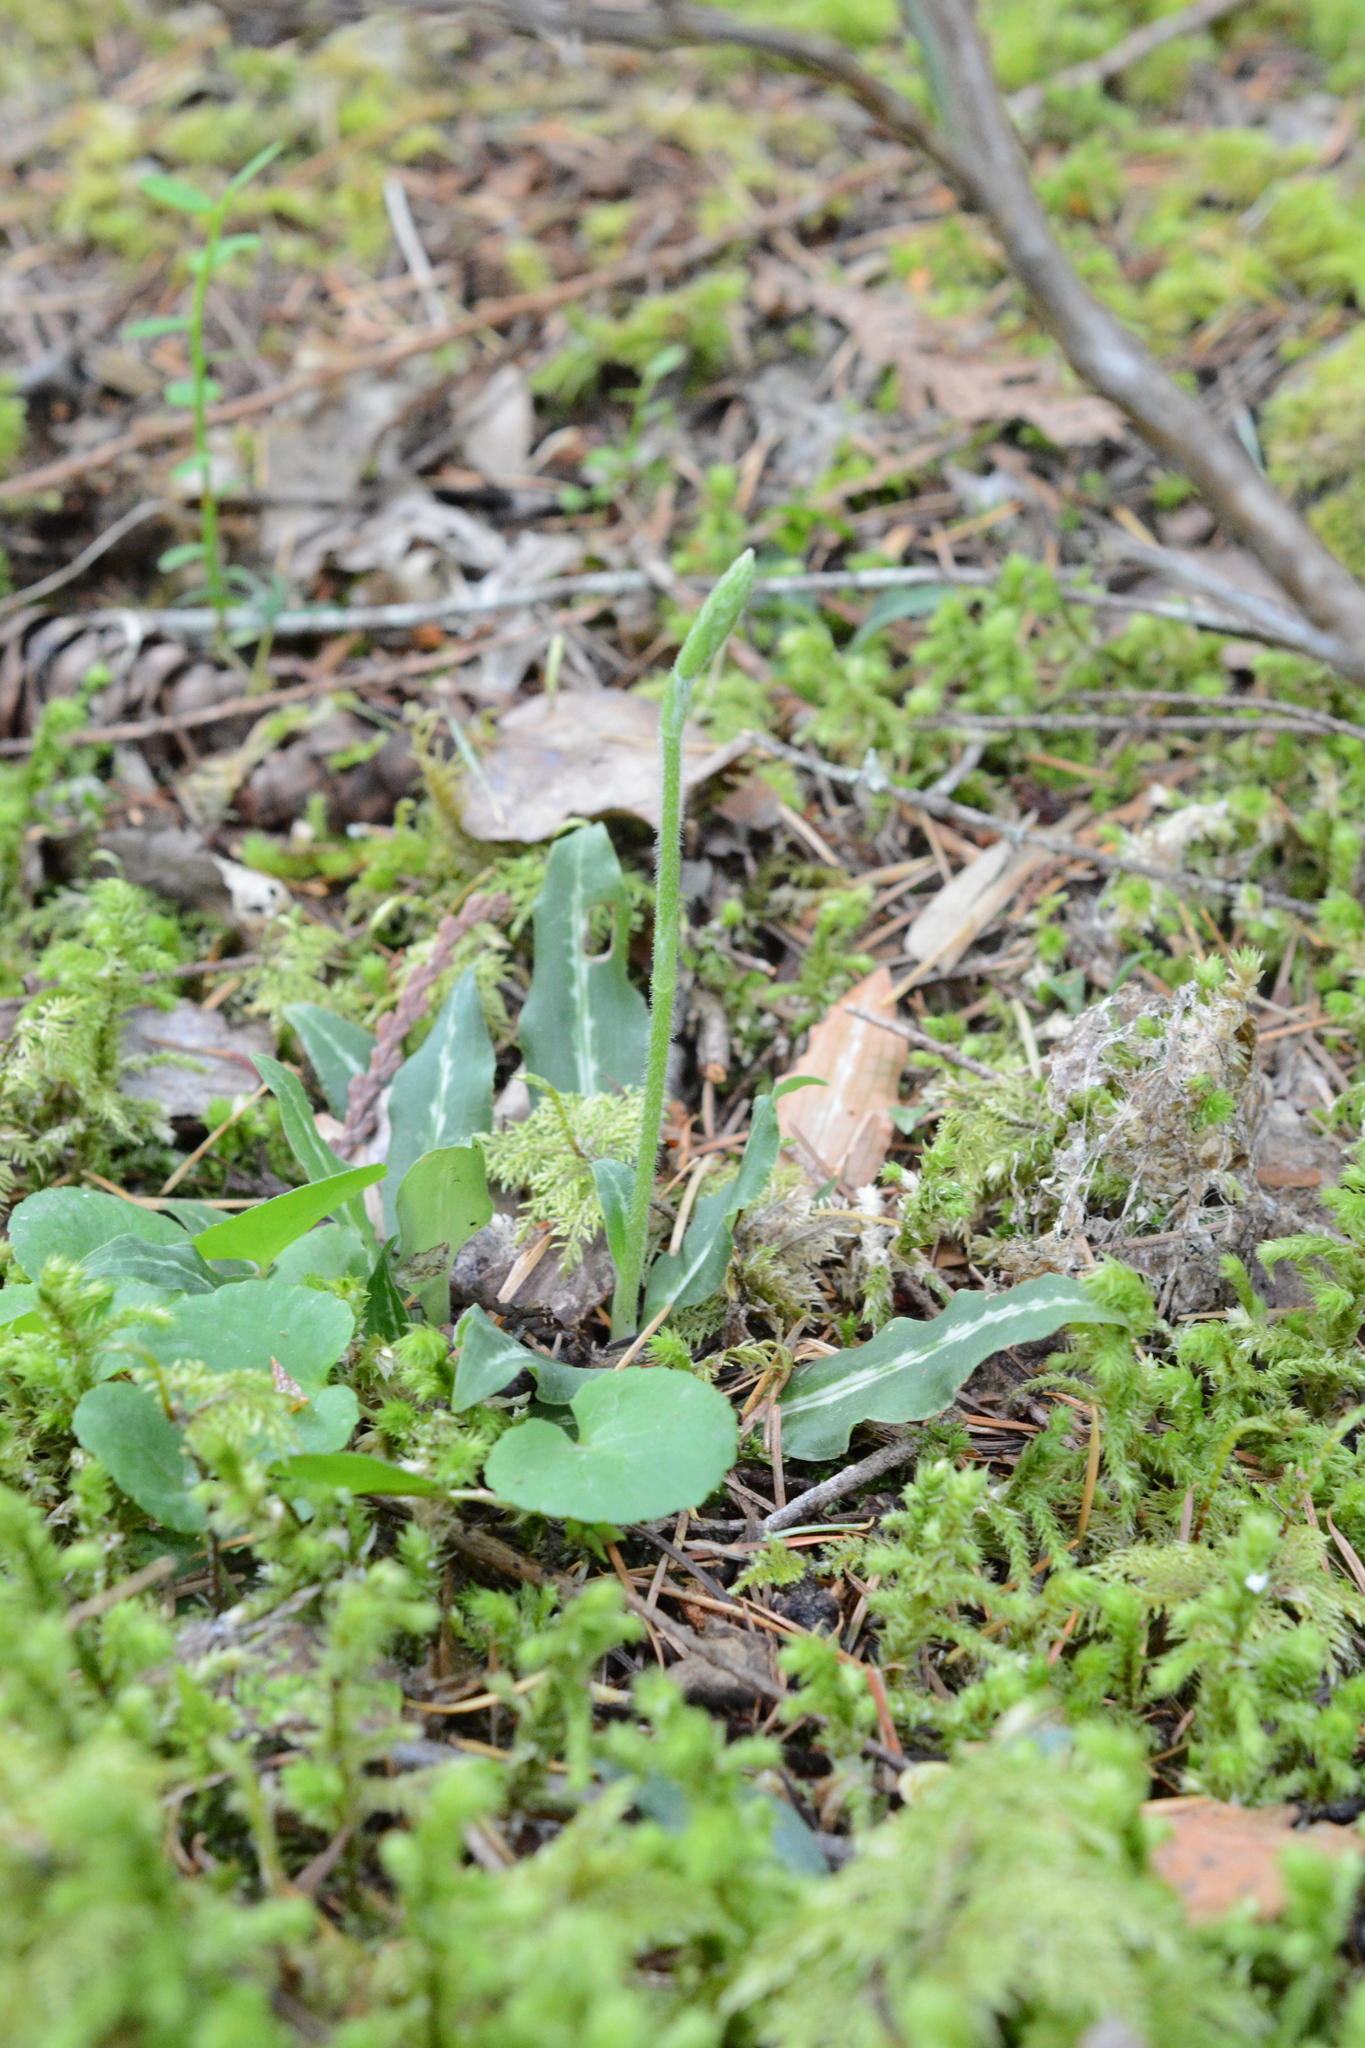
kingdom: Plantae
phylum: Tracheophyta
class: Liliopsida
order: Asparagales
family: Orchidaceae
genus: Goodyera
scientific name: Goodyera oblongifolia
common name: Giant rattlesnake-plantain
